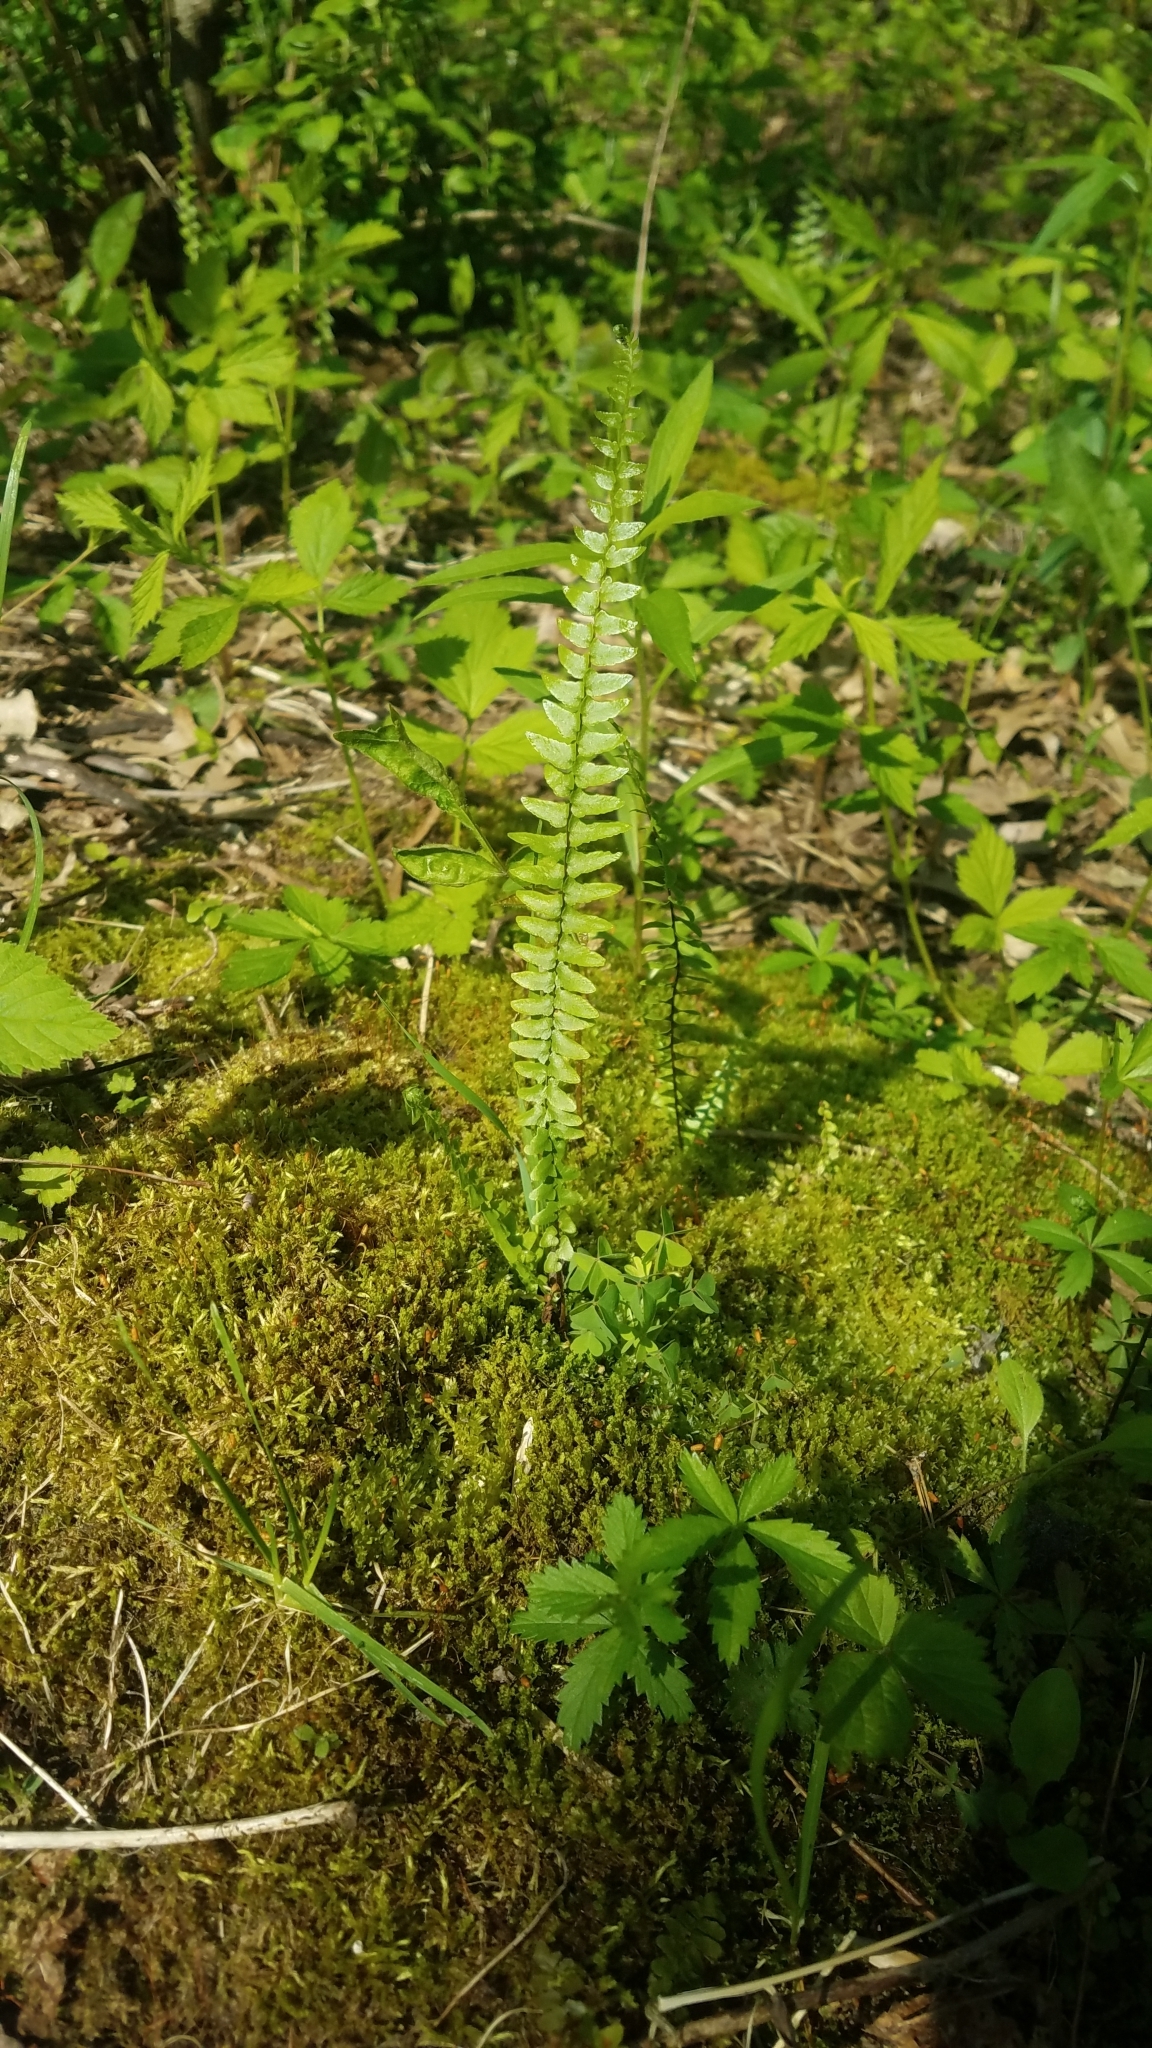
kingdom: Plantae
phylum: Tracheophyta
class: Polypodiopsida
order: Polypodiales
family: Aspleniaceae
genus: Asplenium
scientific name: Asplenium platyneuron
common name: Ebony spleenwort
